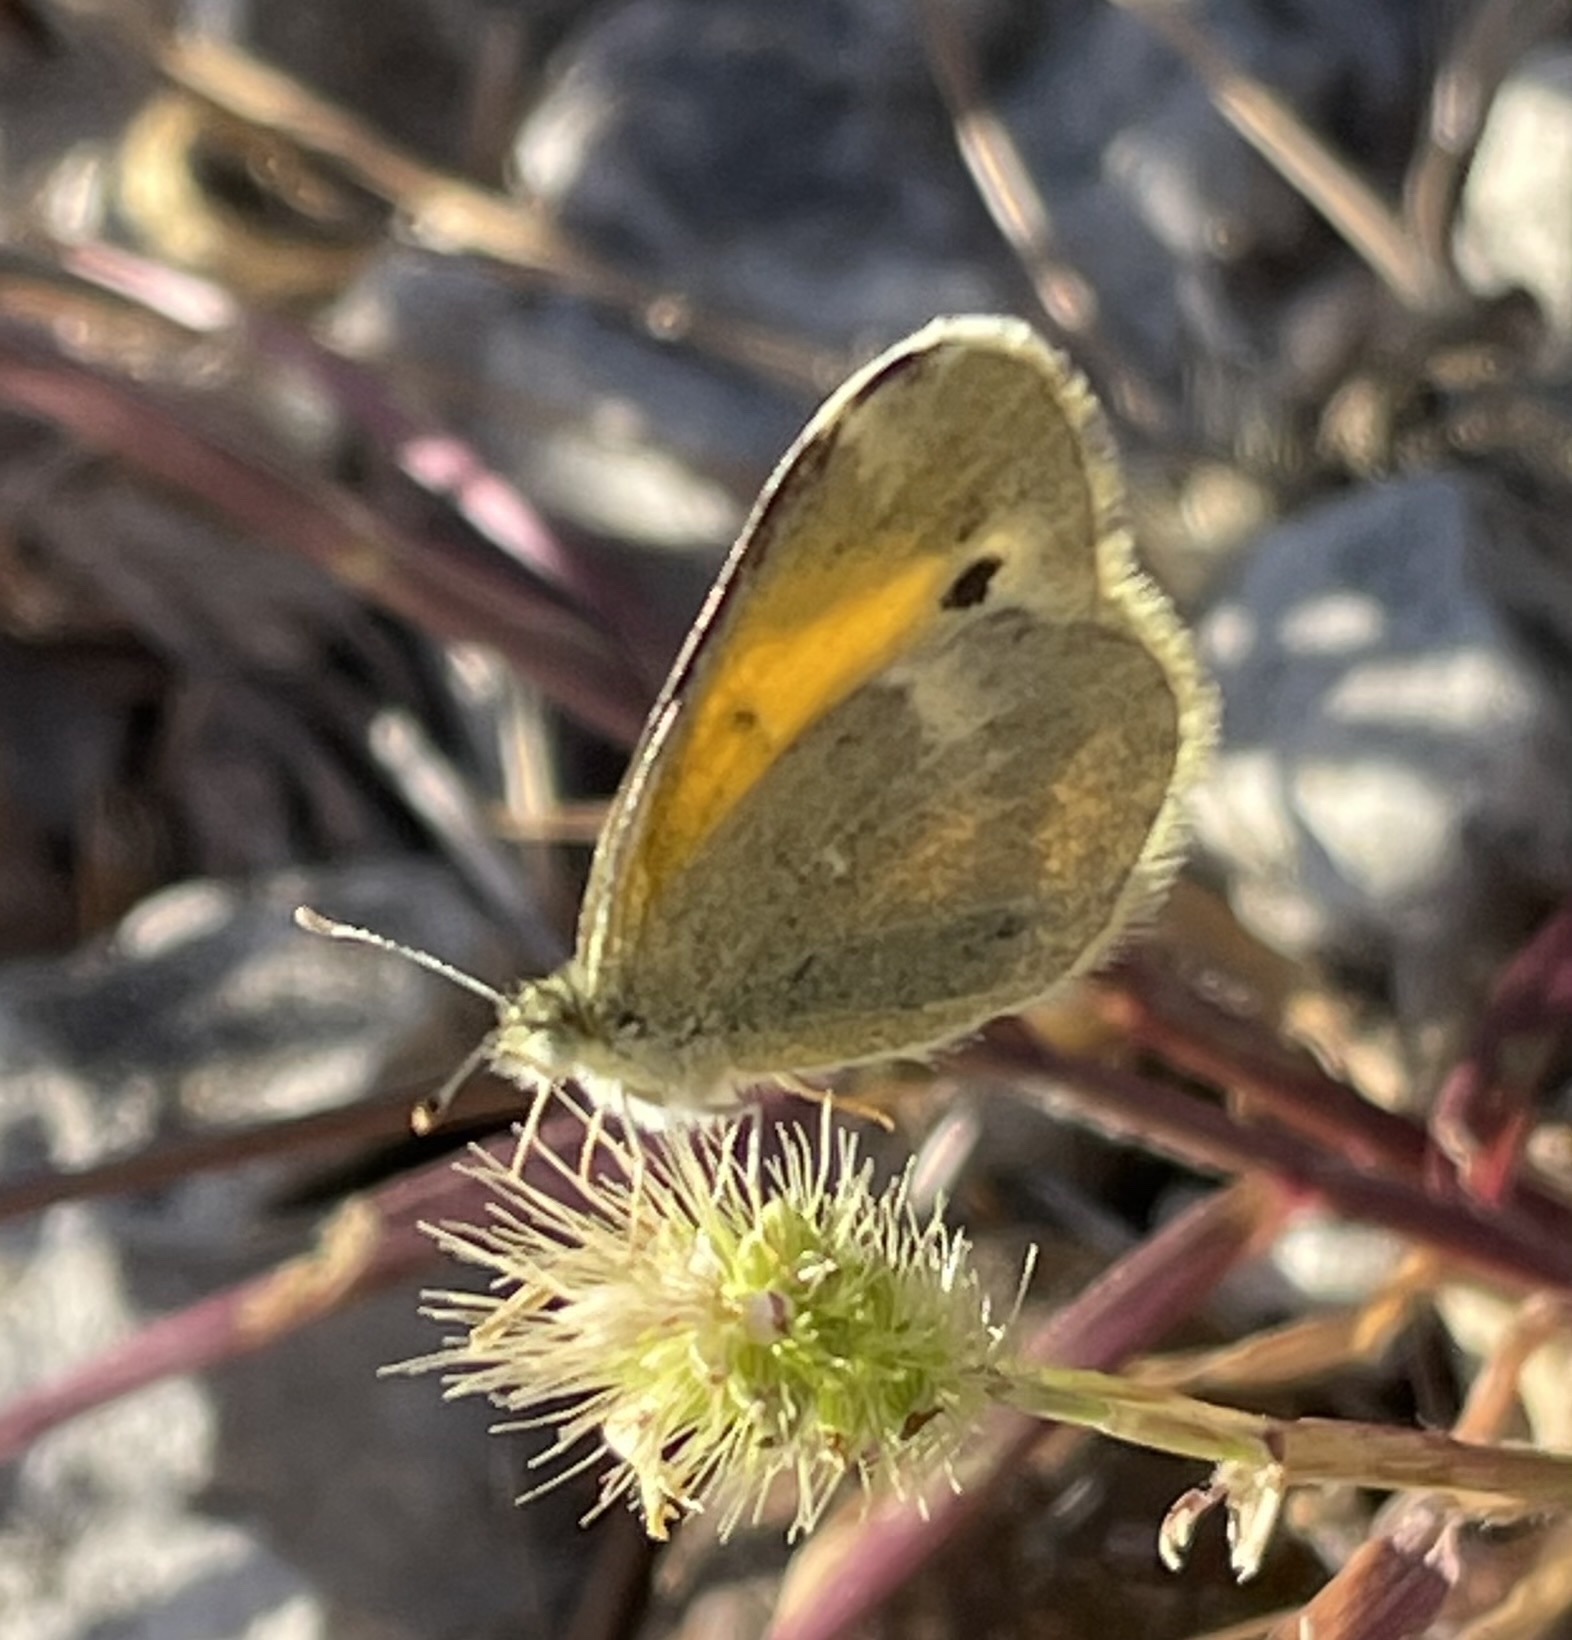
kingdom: Animalia
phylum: Arthropoda
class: Insecta
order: Lepidoptera
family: Pieridae
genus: Nathalis
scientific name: Nathalis iole
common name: Dainty sulphur
